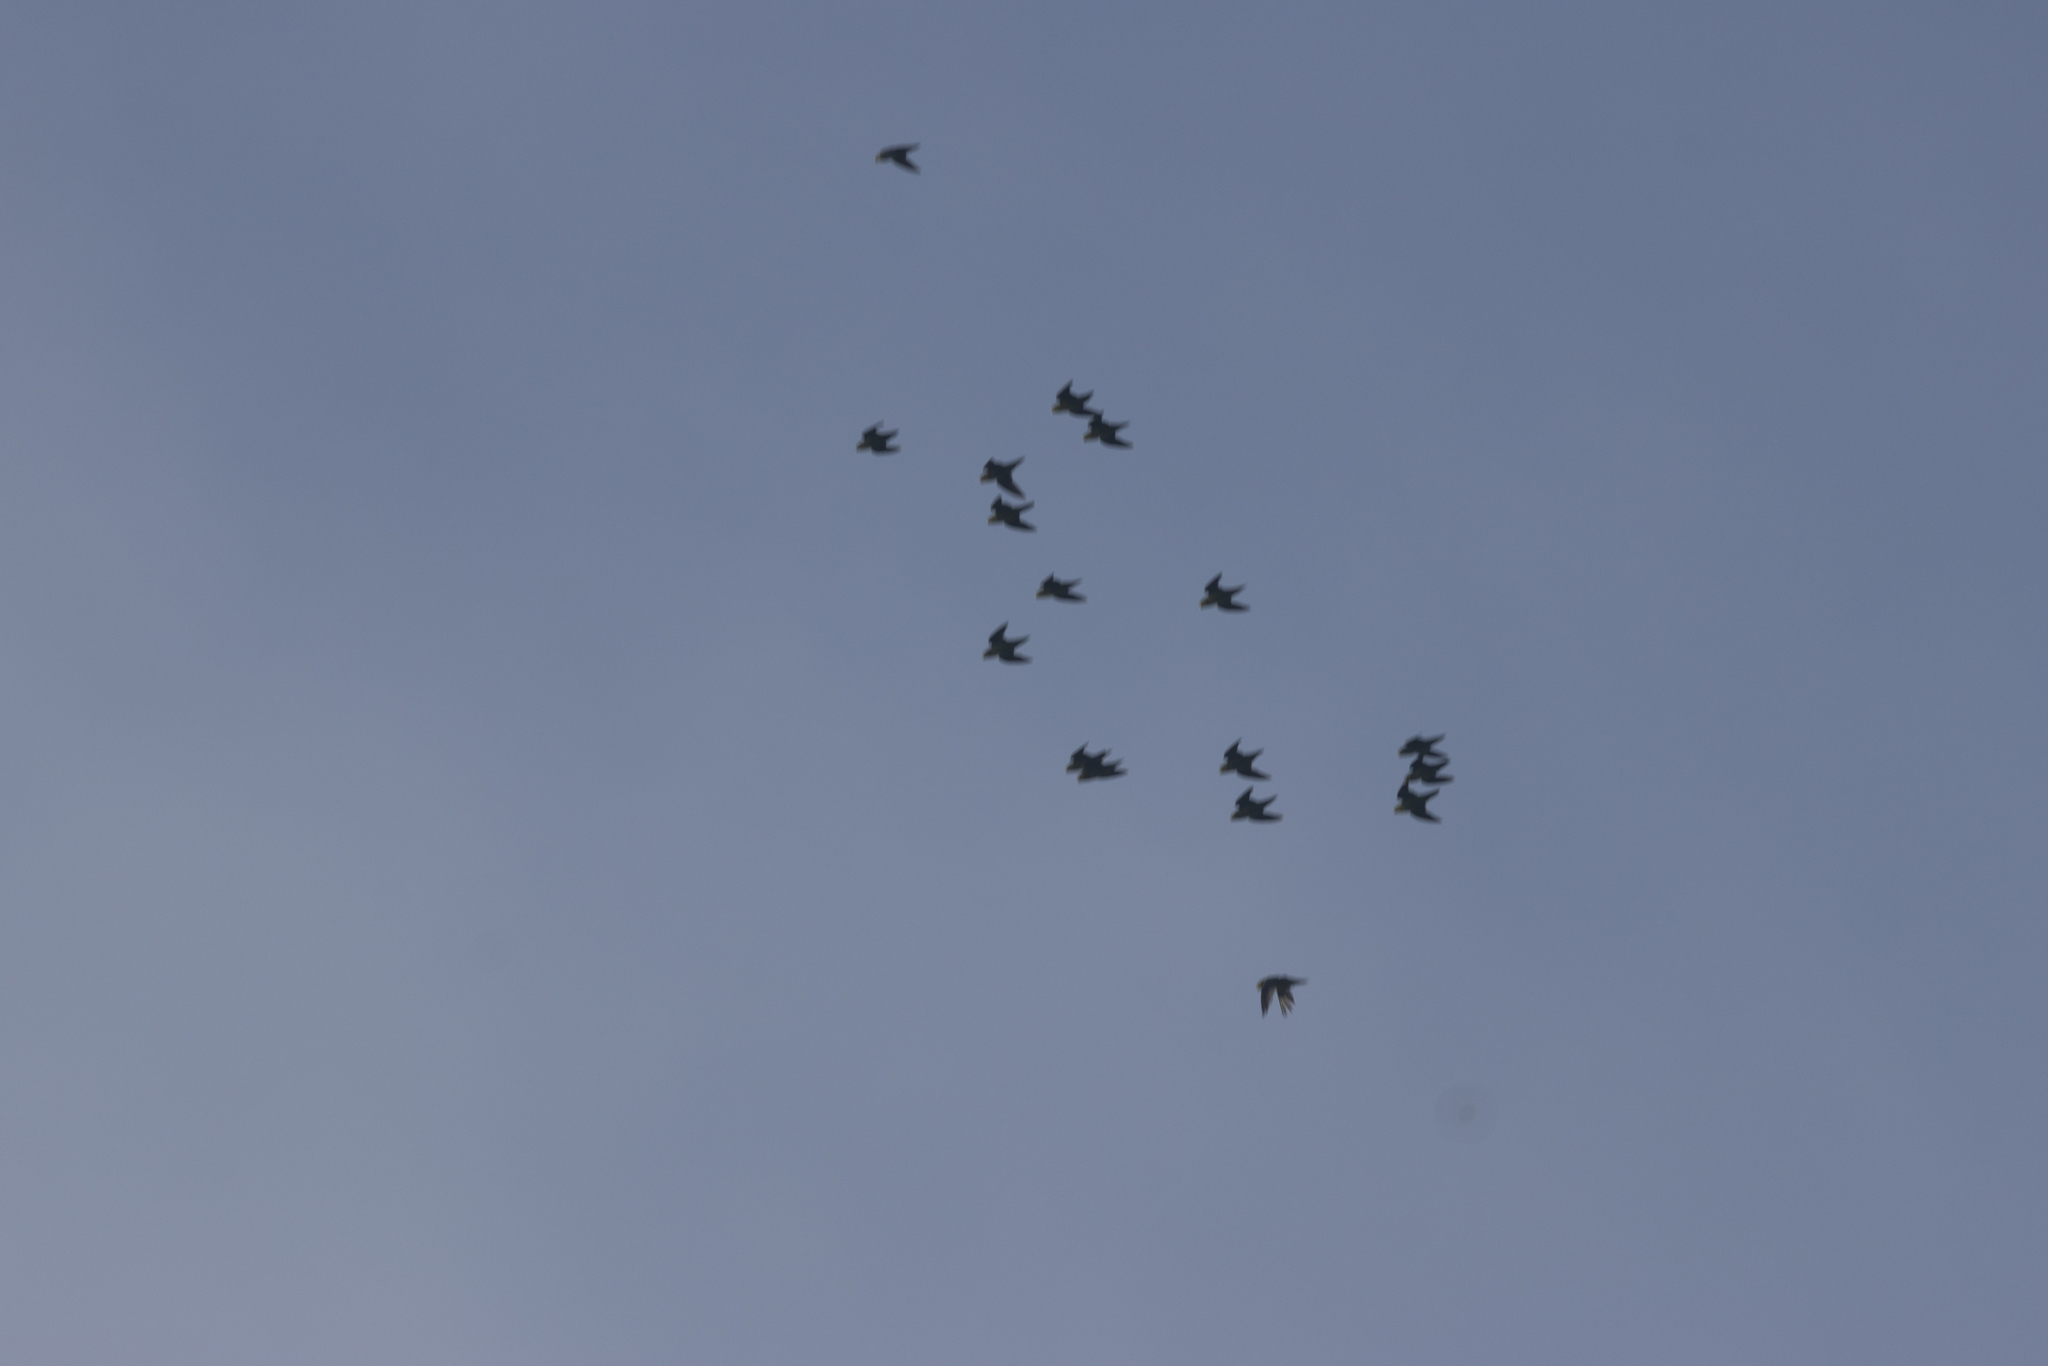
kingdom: Animalia
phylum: Chordata
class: Aves
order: Psittaciformes
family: Psittacidae
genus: Bolborhynchus
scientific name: Bolborhynchus lineola
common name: Barred parakeet
